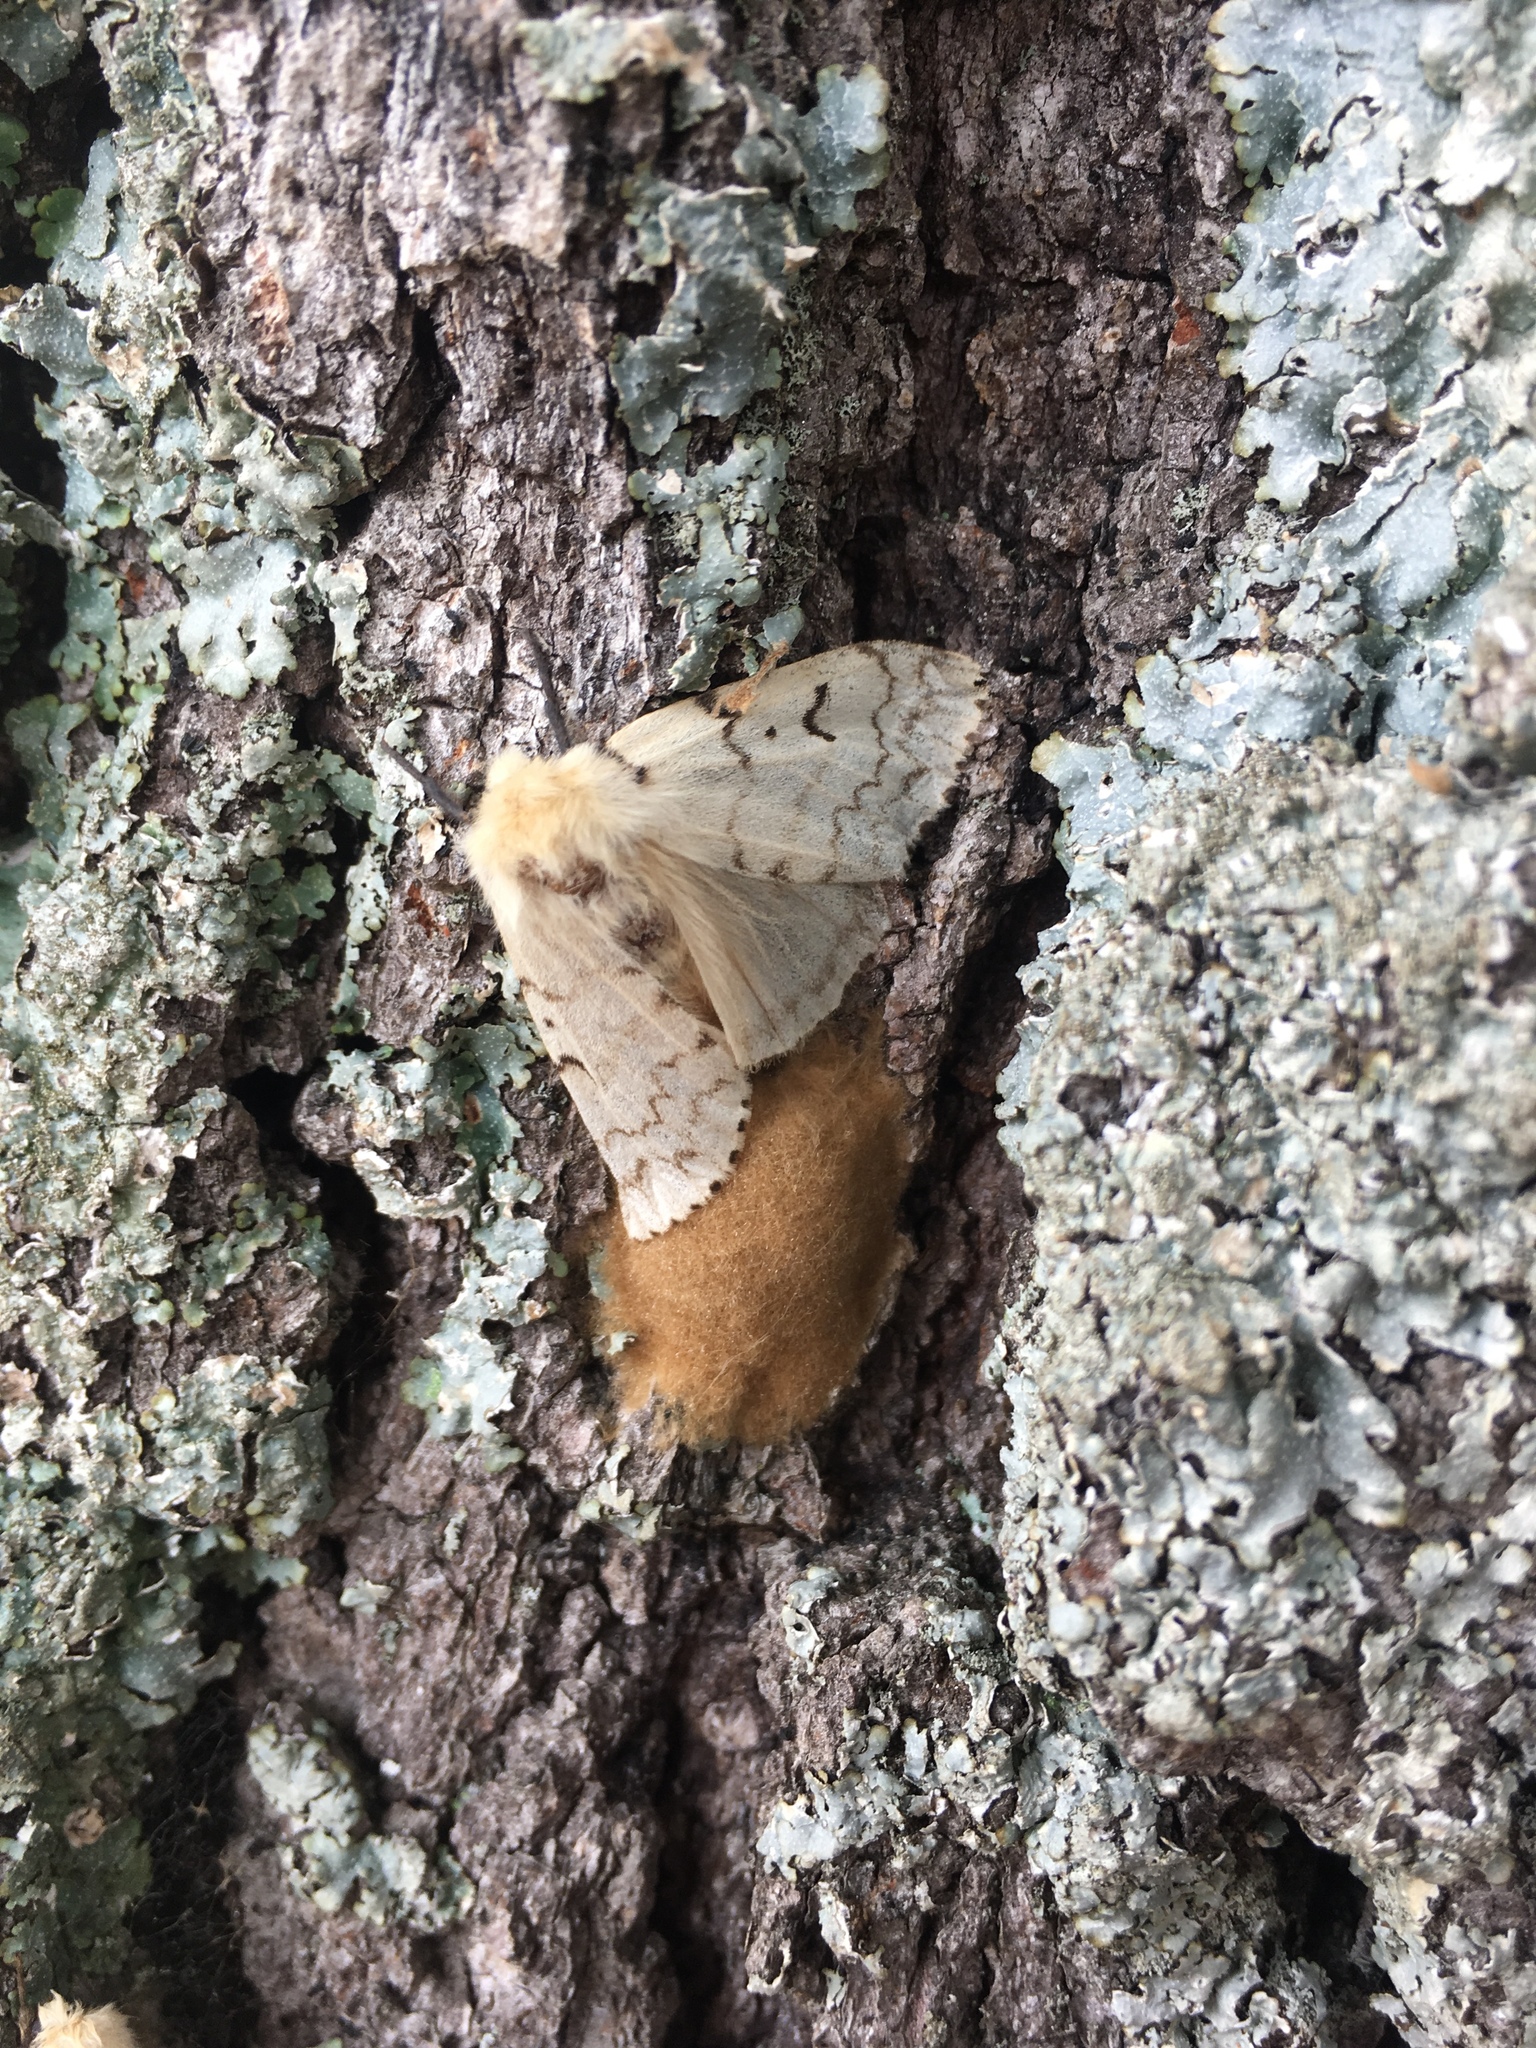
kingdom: Animalia
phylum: Arthropoda
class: Insecta
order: Lepidoptera
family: Erebidae
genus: Lymantria
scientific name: Lymantria dispar
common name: Gypsy moth
